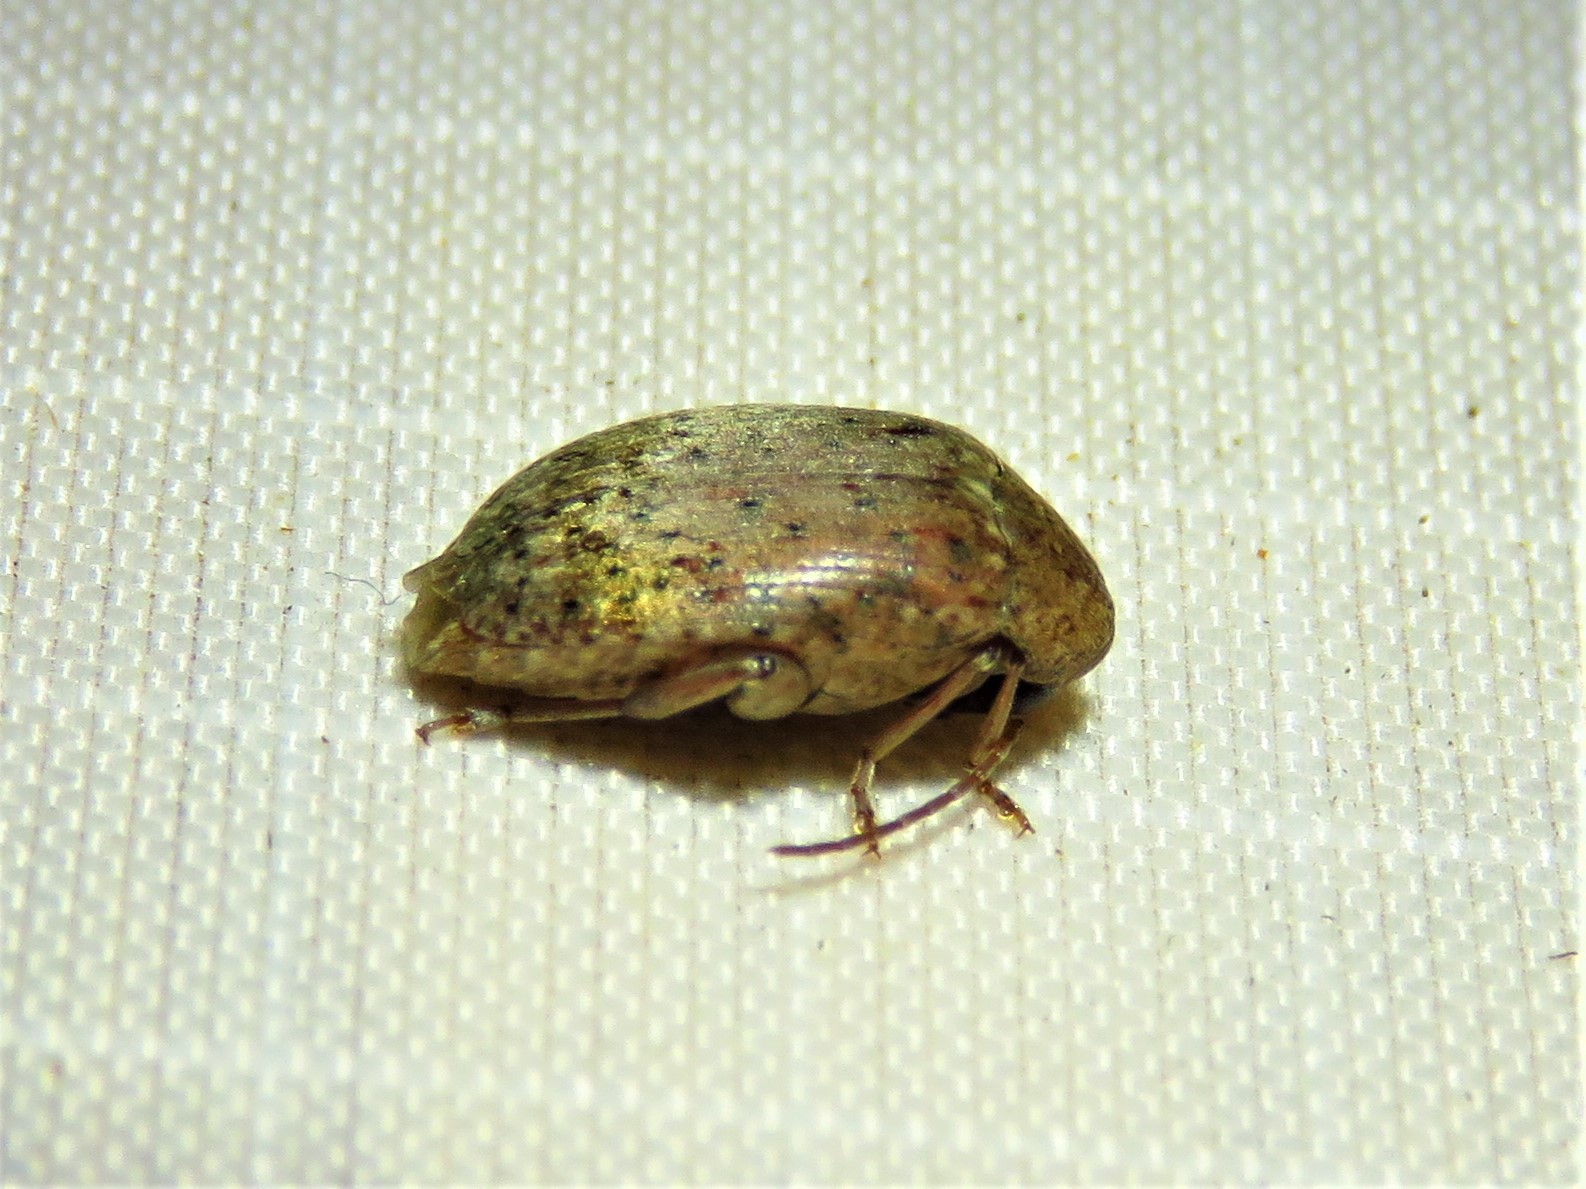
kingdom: Animalia
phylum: Arthropoda
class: Insecta
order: Coleoptera
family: Chrysomelidae
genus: Amblycerus
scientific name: Amblycerus robiniae
